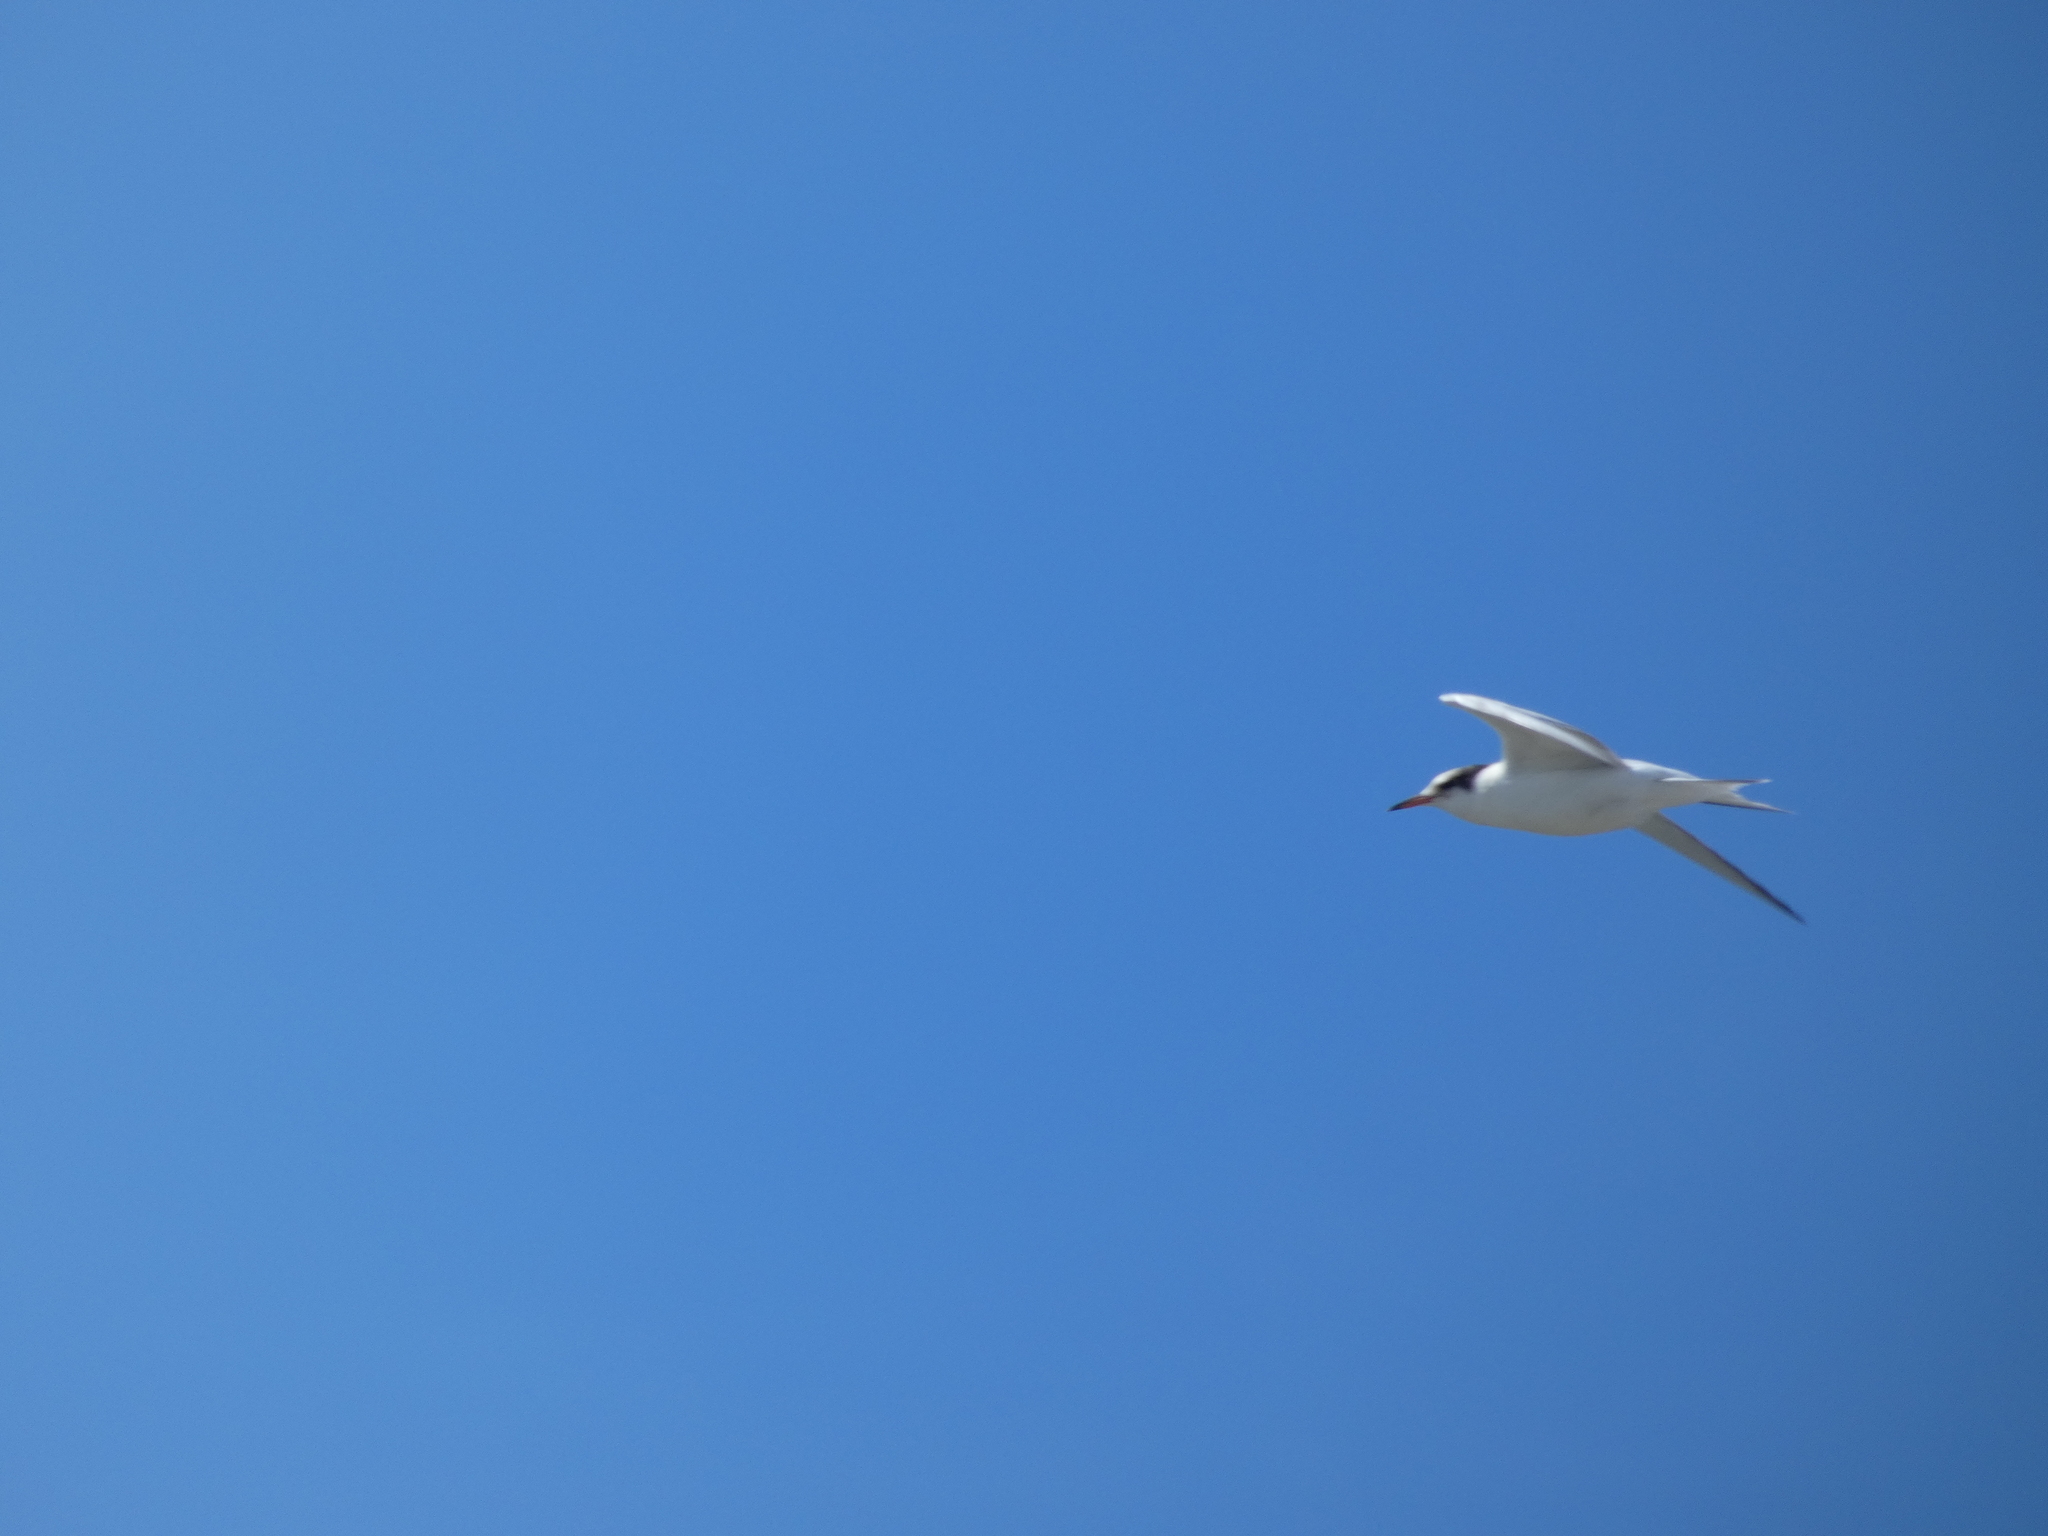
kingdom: Animalia
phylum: Chordata
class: Aves
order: Charadriiformes
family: Laridae
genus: Sterna
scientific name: Sterna hirundo
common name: Common tern
